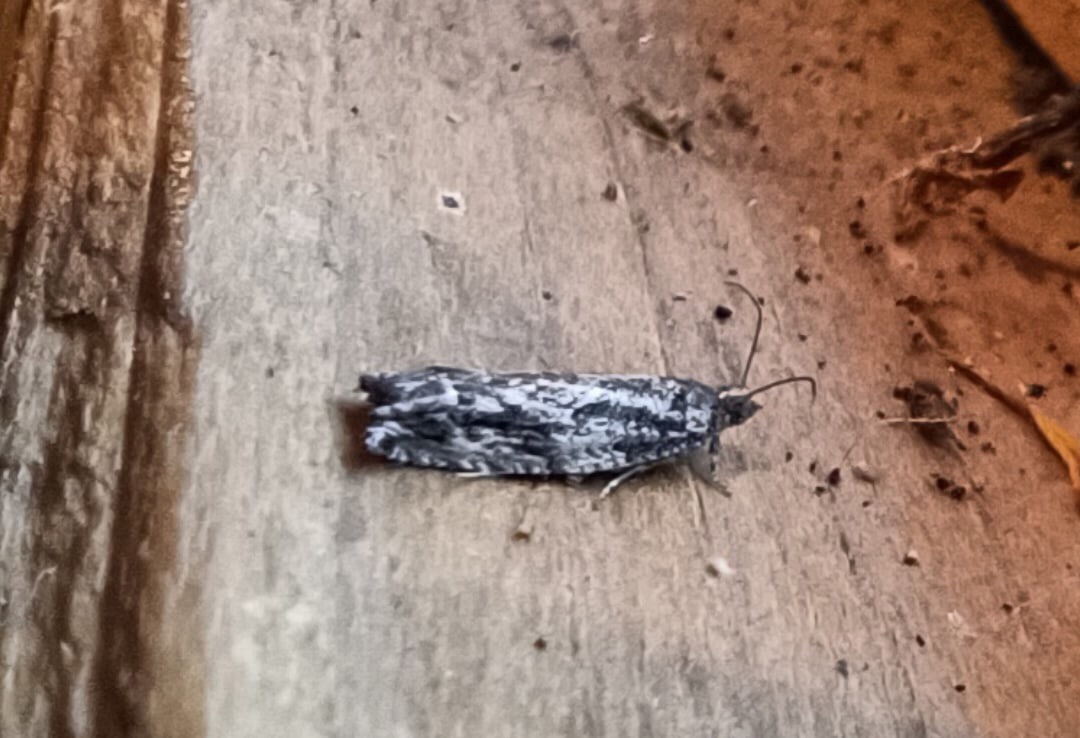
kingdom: Animalia
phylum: Arthropoda
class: Insecta
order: Lepidoptera
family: Tortricidae
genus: Epinotia
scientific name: Epinotia crenana
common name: Highland bell
